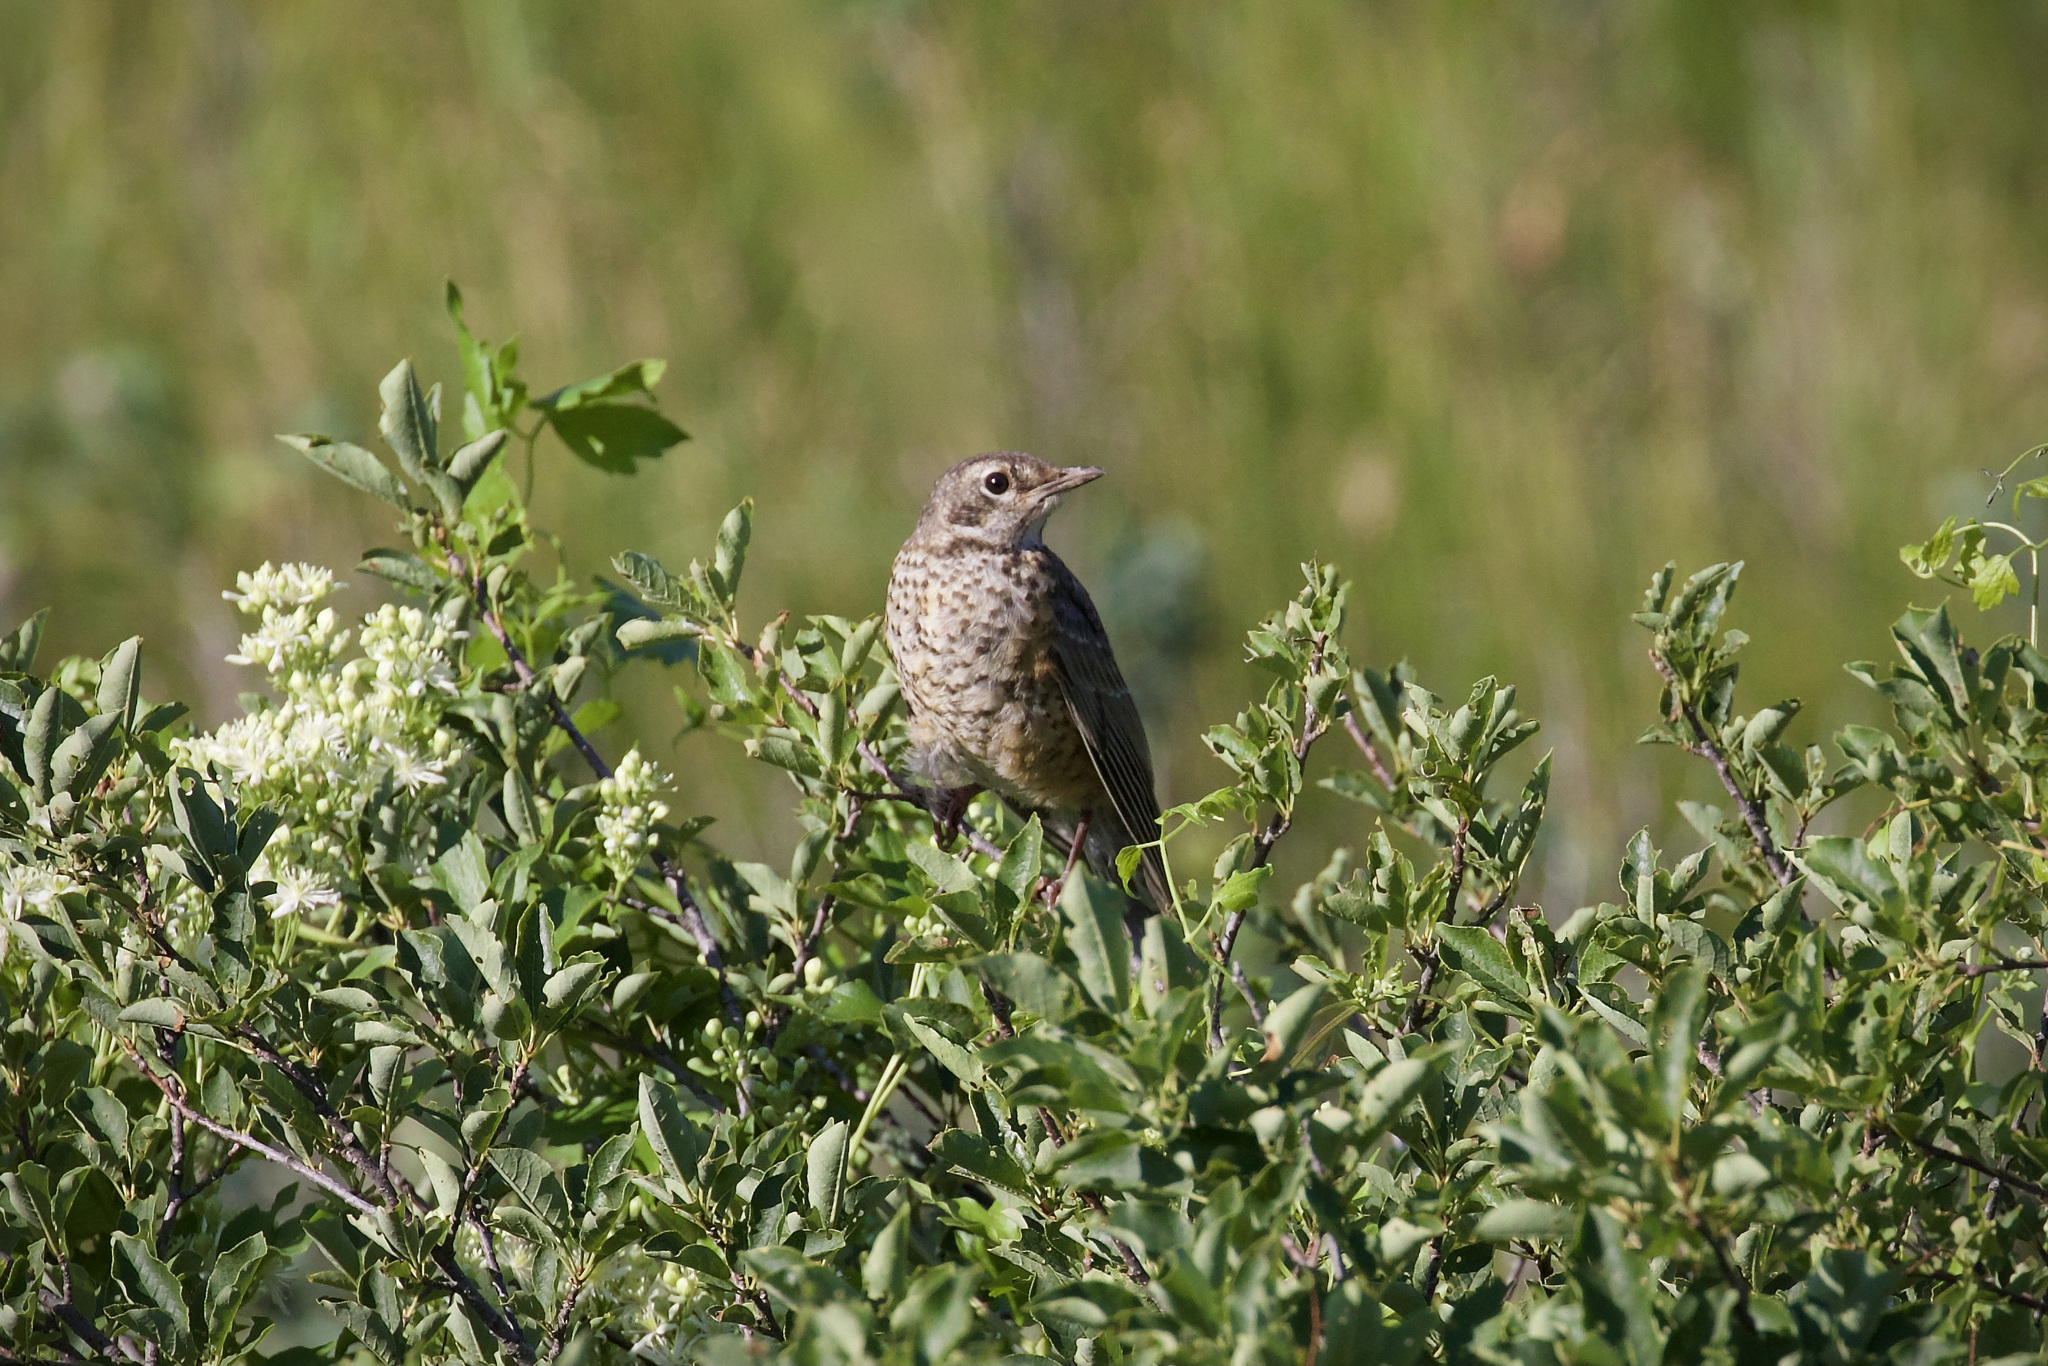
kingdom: Animalia
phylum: Chordata
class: Aves
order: Passeriformes
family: Turdidae
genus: Turdus
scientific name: Turdus migratorius
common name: American robin
